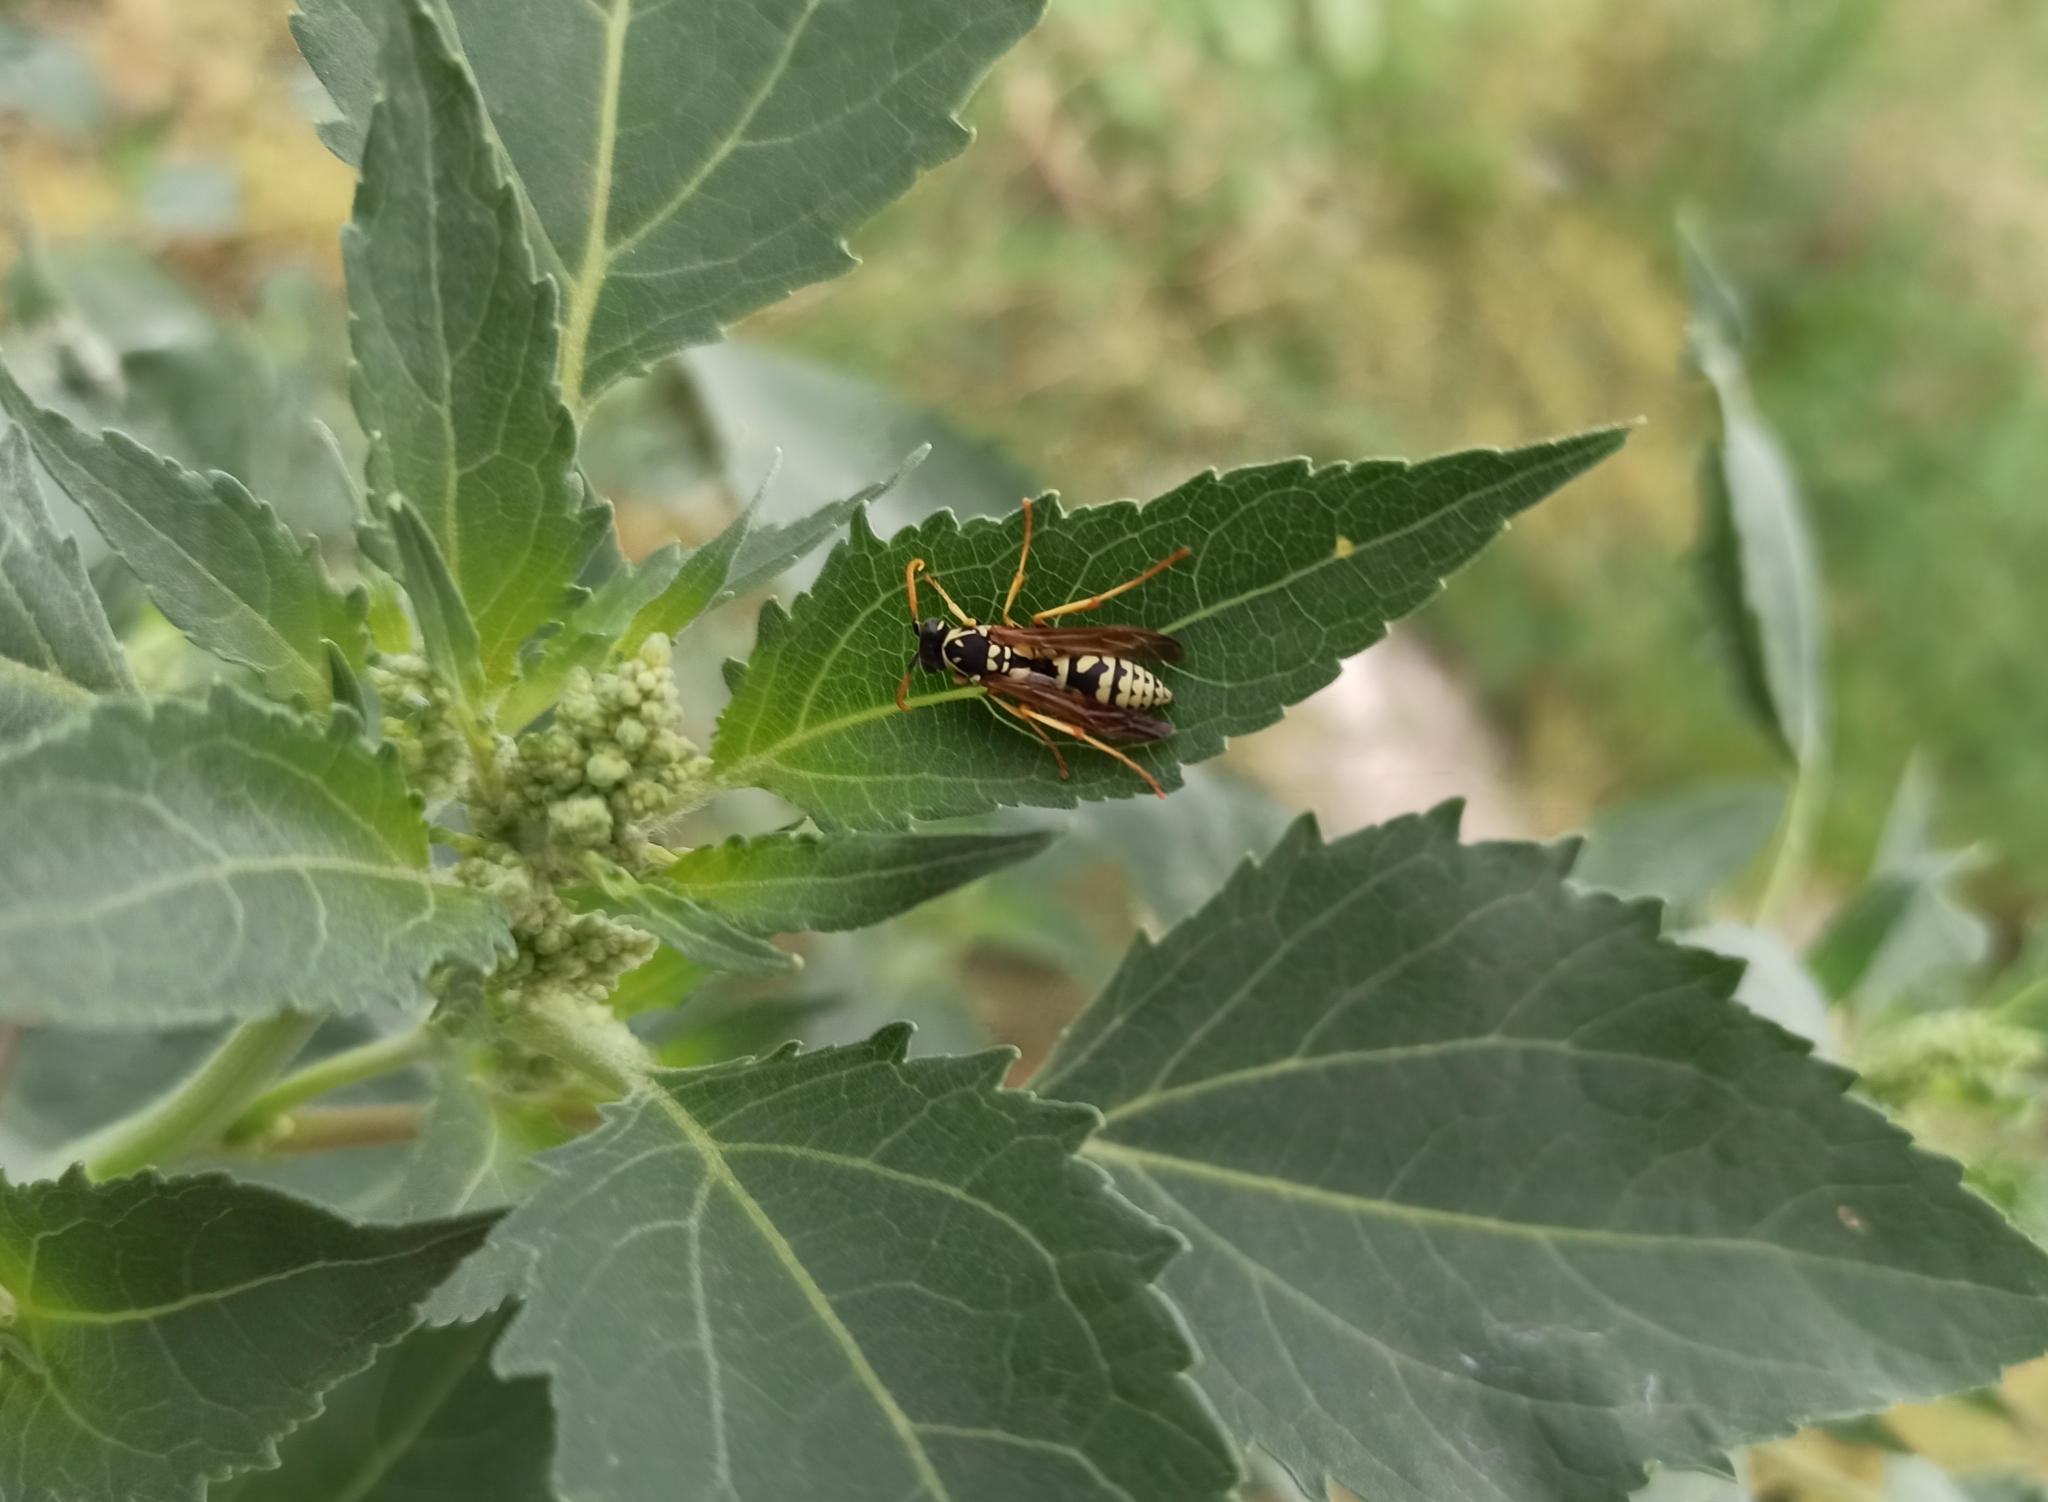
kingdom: Animalia
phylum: Arthropoda
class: Insecta
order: Hymenoptera
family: Eumenidae
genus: Polistes
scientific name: Polistes gallicus
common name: Paper wasp
